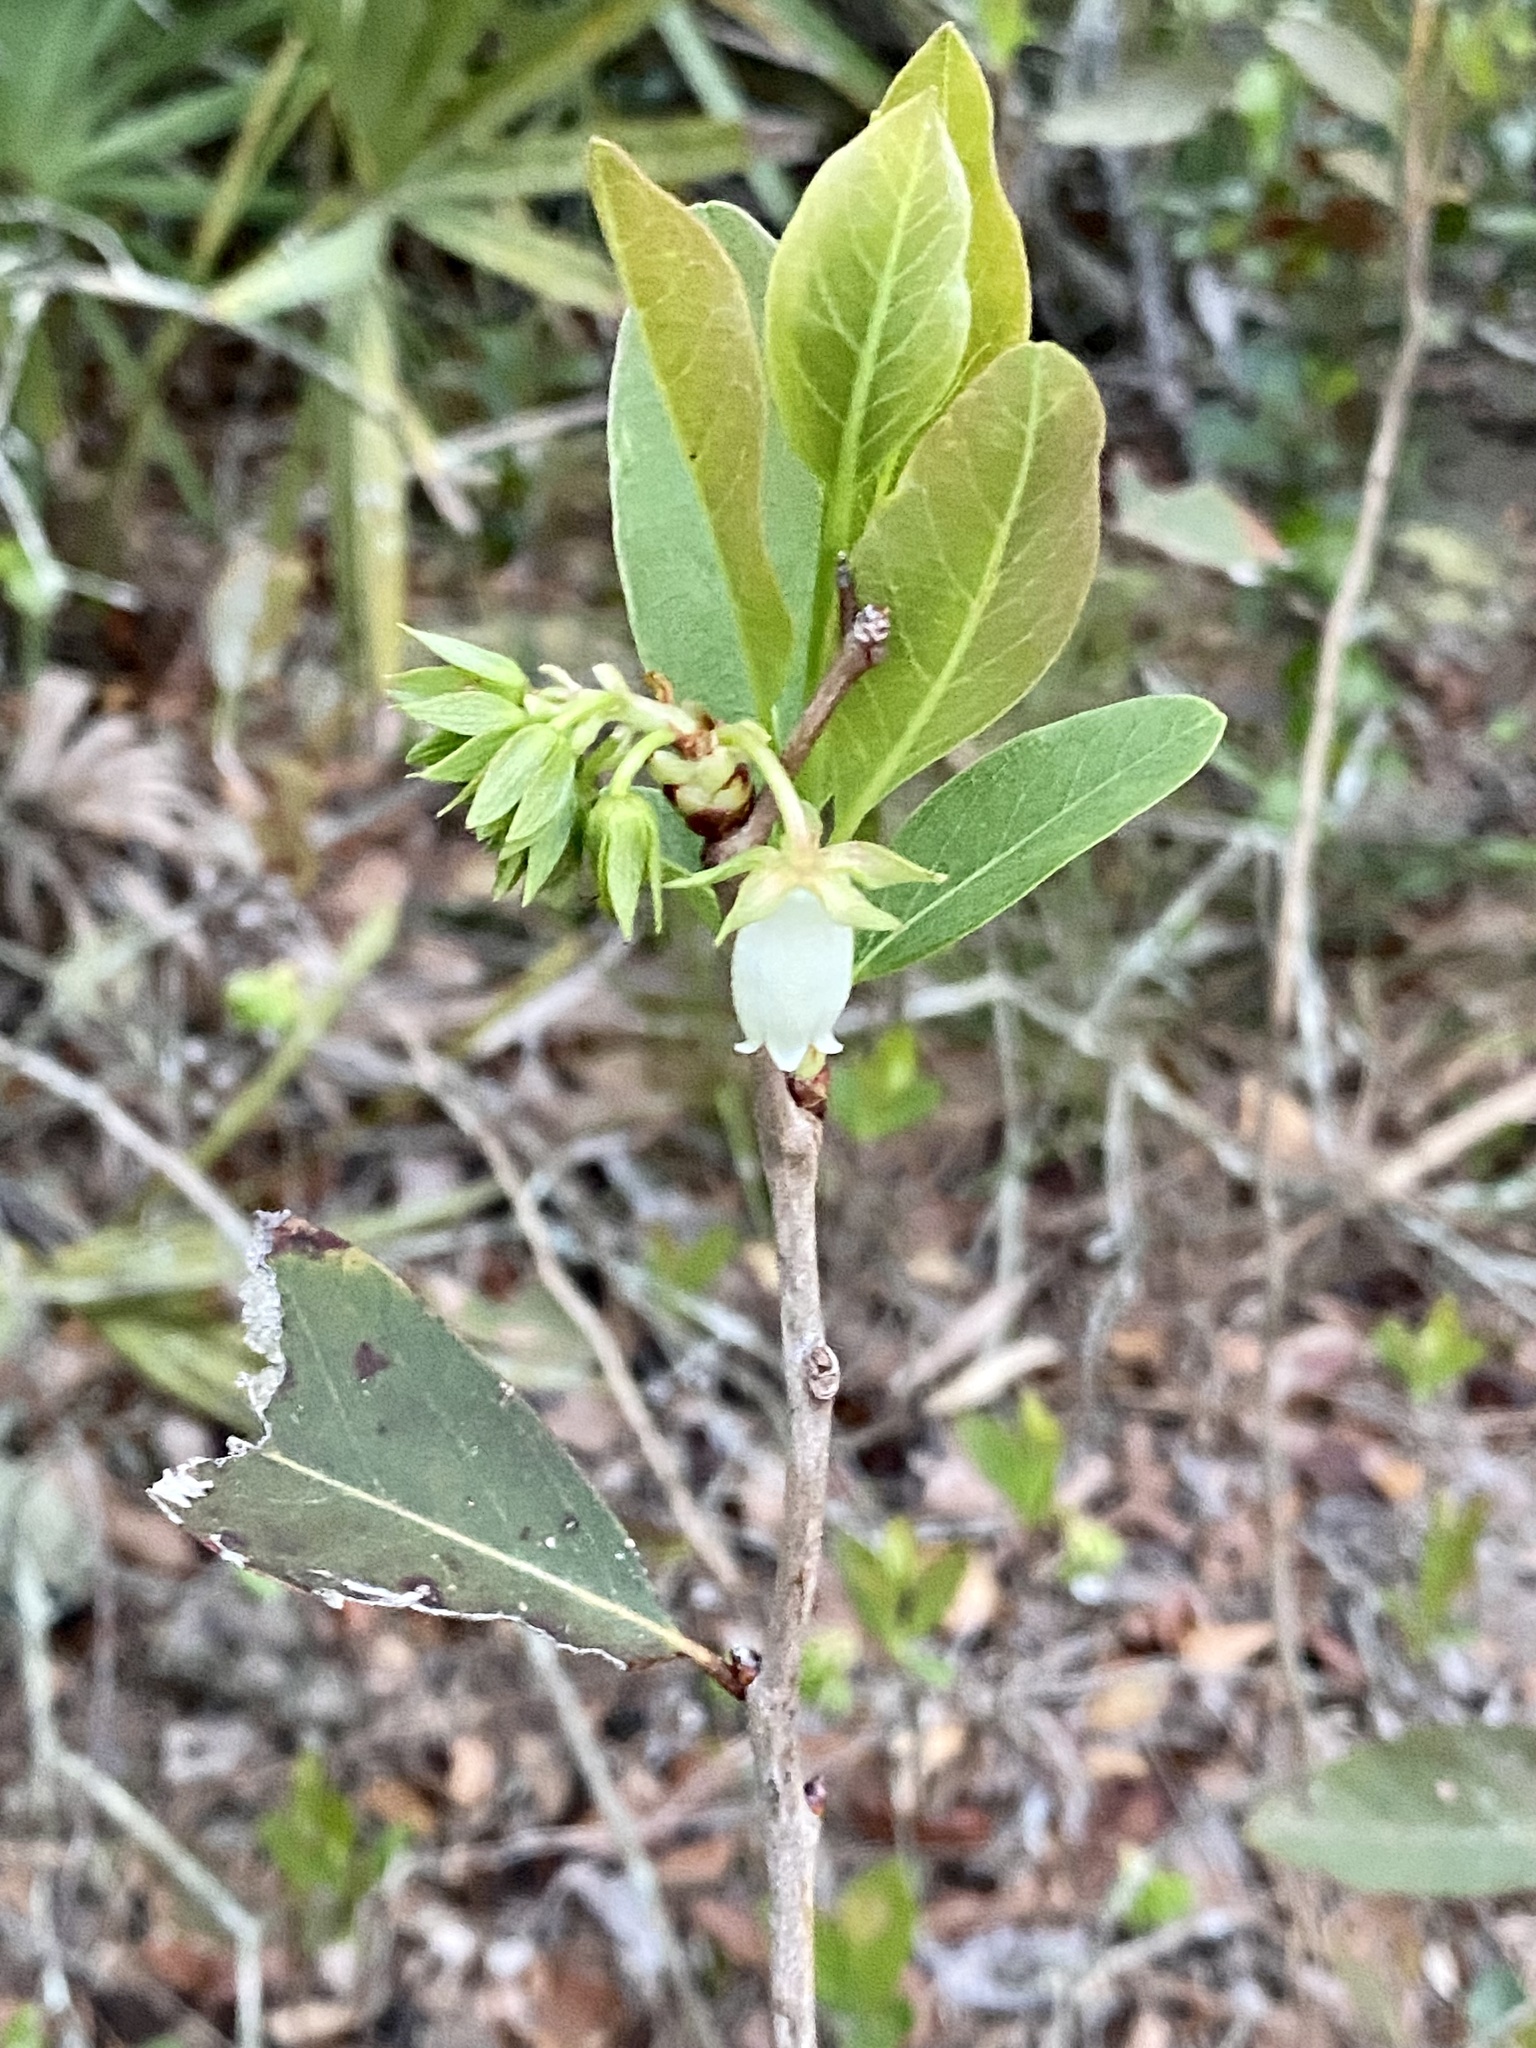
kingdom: Plantae
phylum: Tracheophyta
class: Magnoliopsida
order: Ericales
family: Ericaceae
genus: Lyonia
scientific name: Lyonia mariana
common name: Staggerbush
